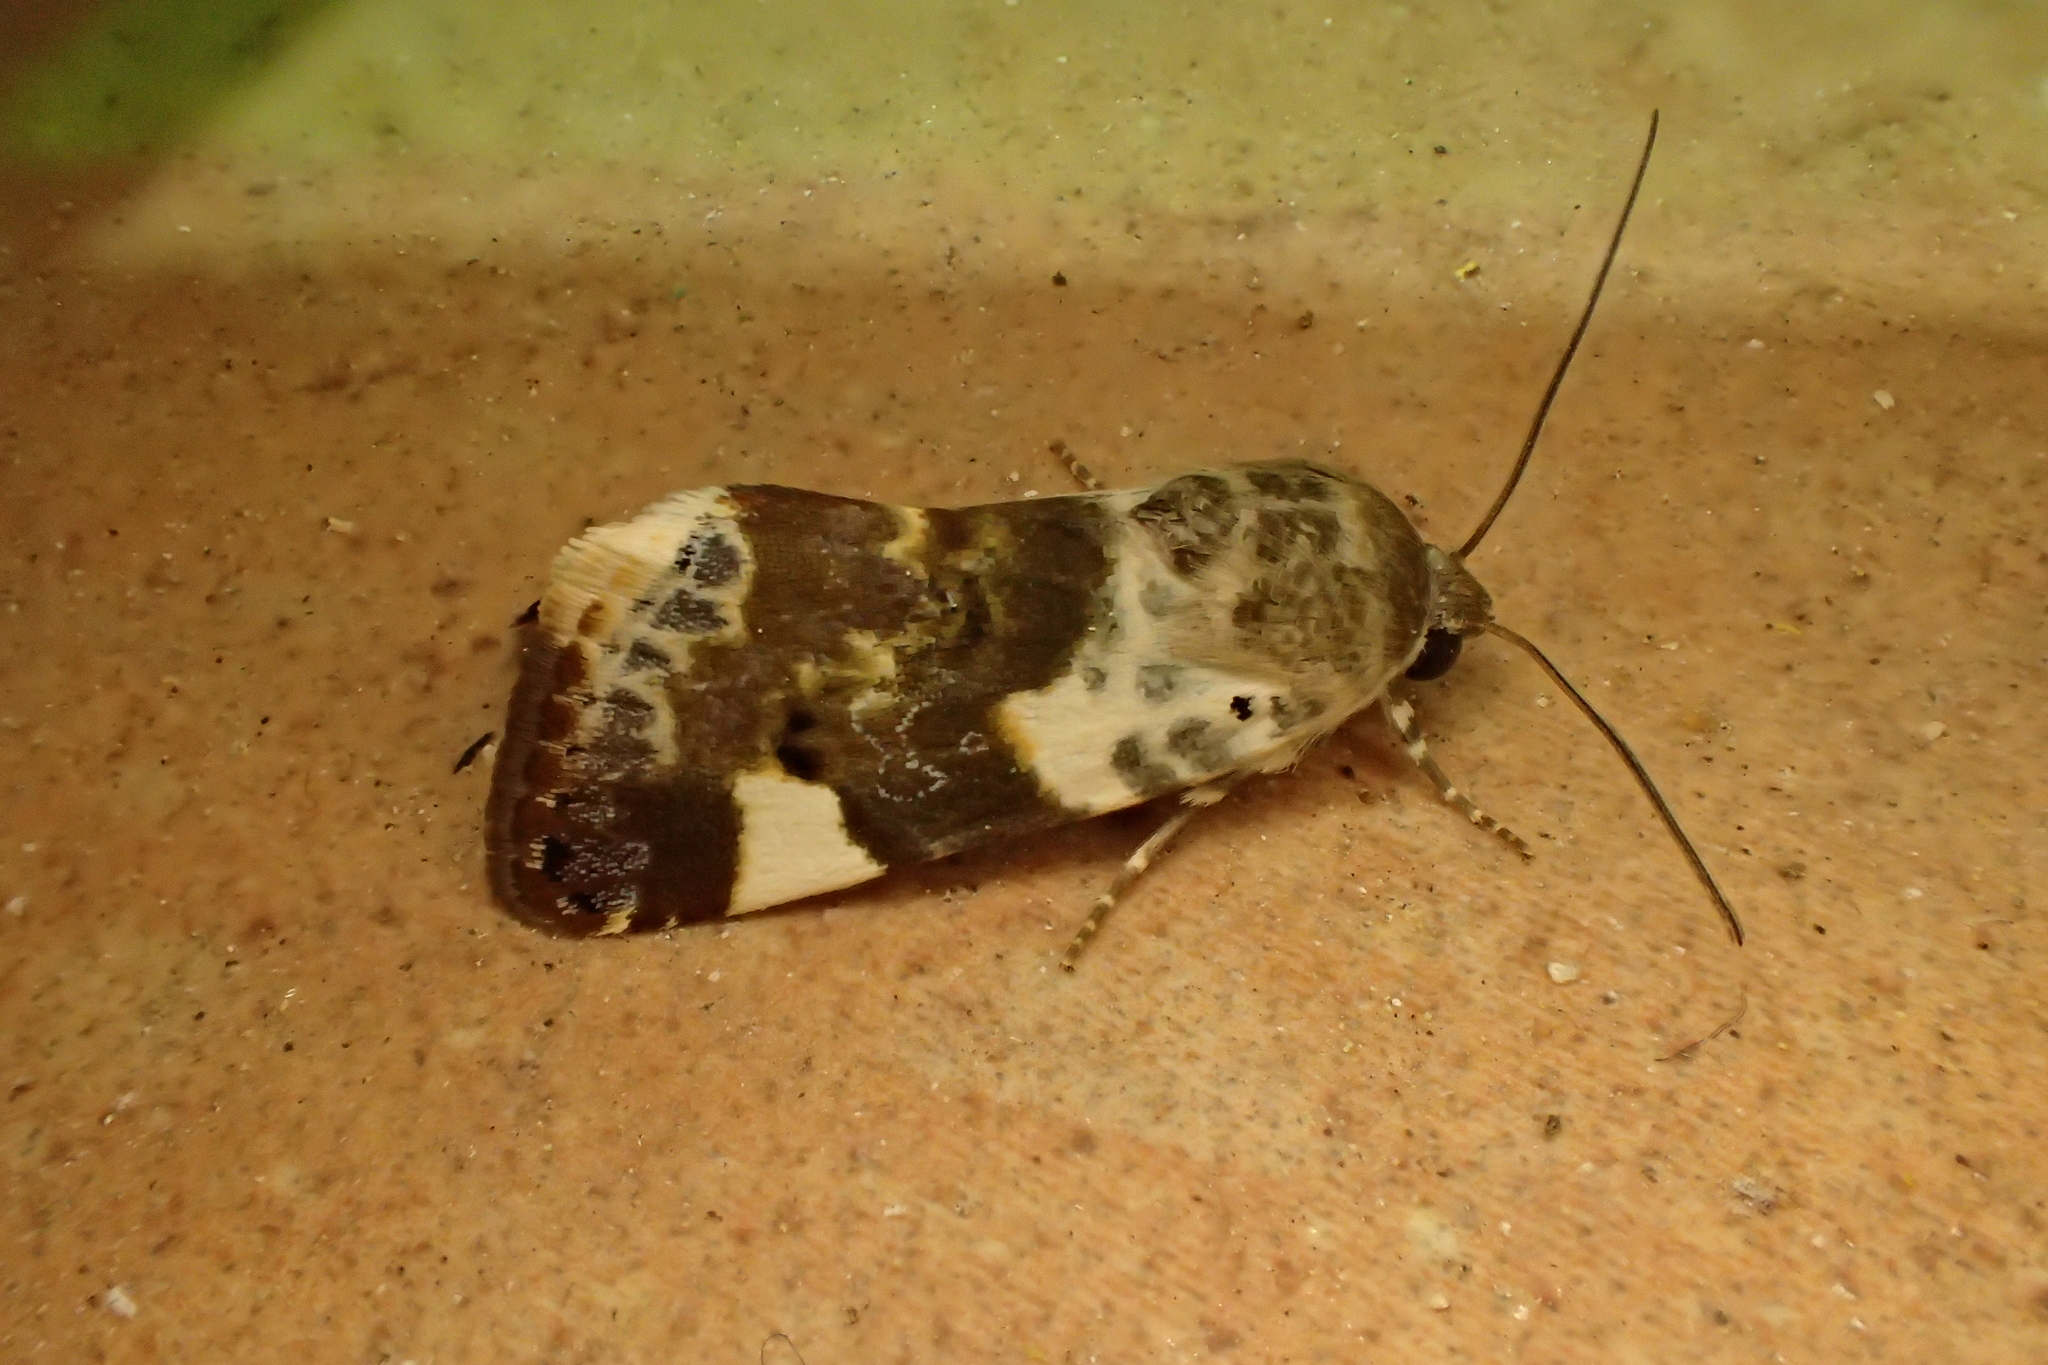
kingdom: Animalia
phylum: Arthropoda
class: Insecta
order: Lepidoptera
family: Noctuidae
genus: Acontia
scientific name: Acontia lucida
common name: Pale shoulder
